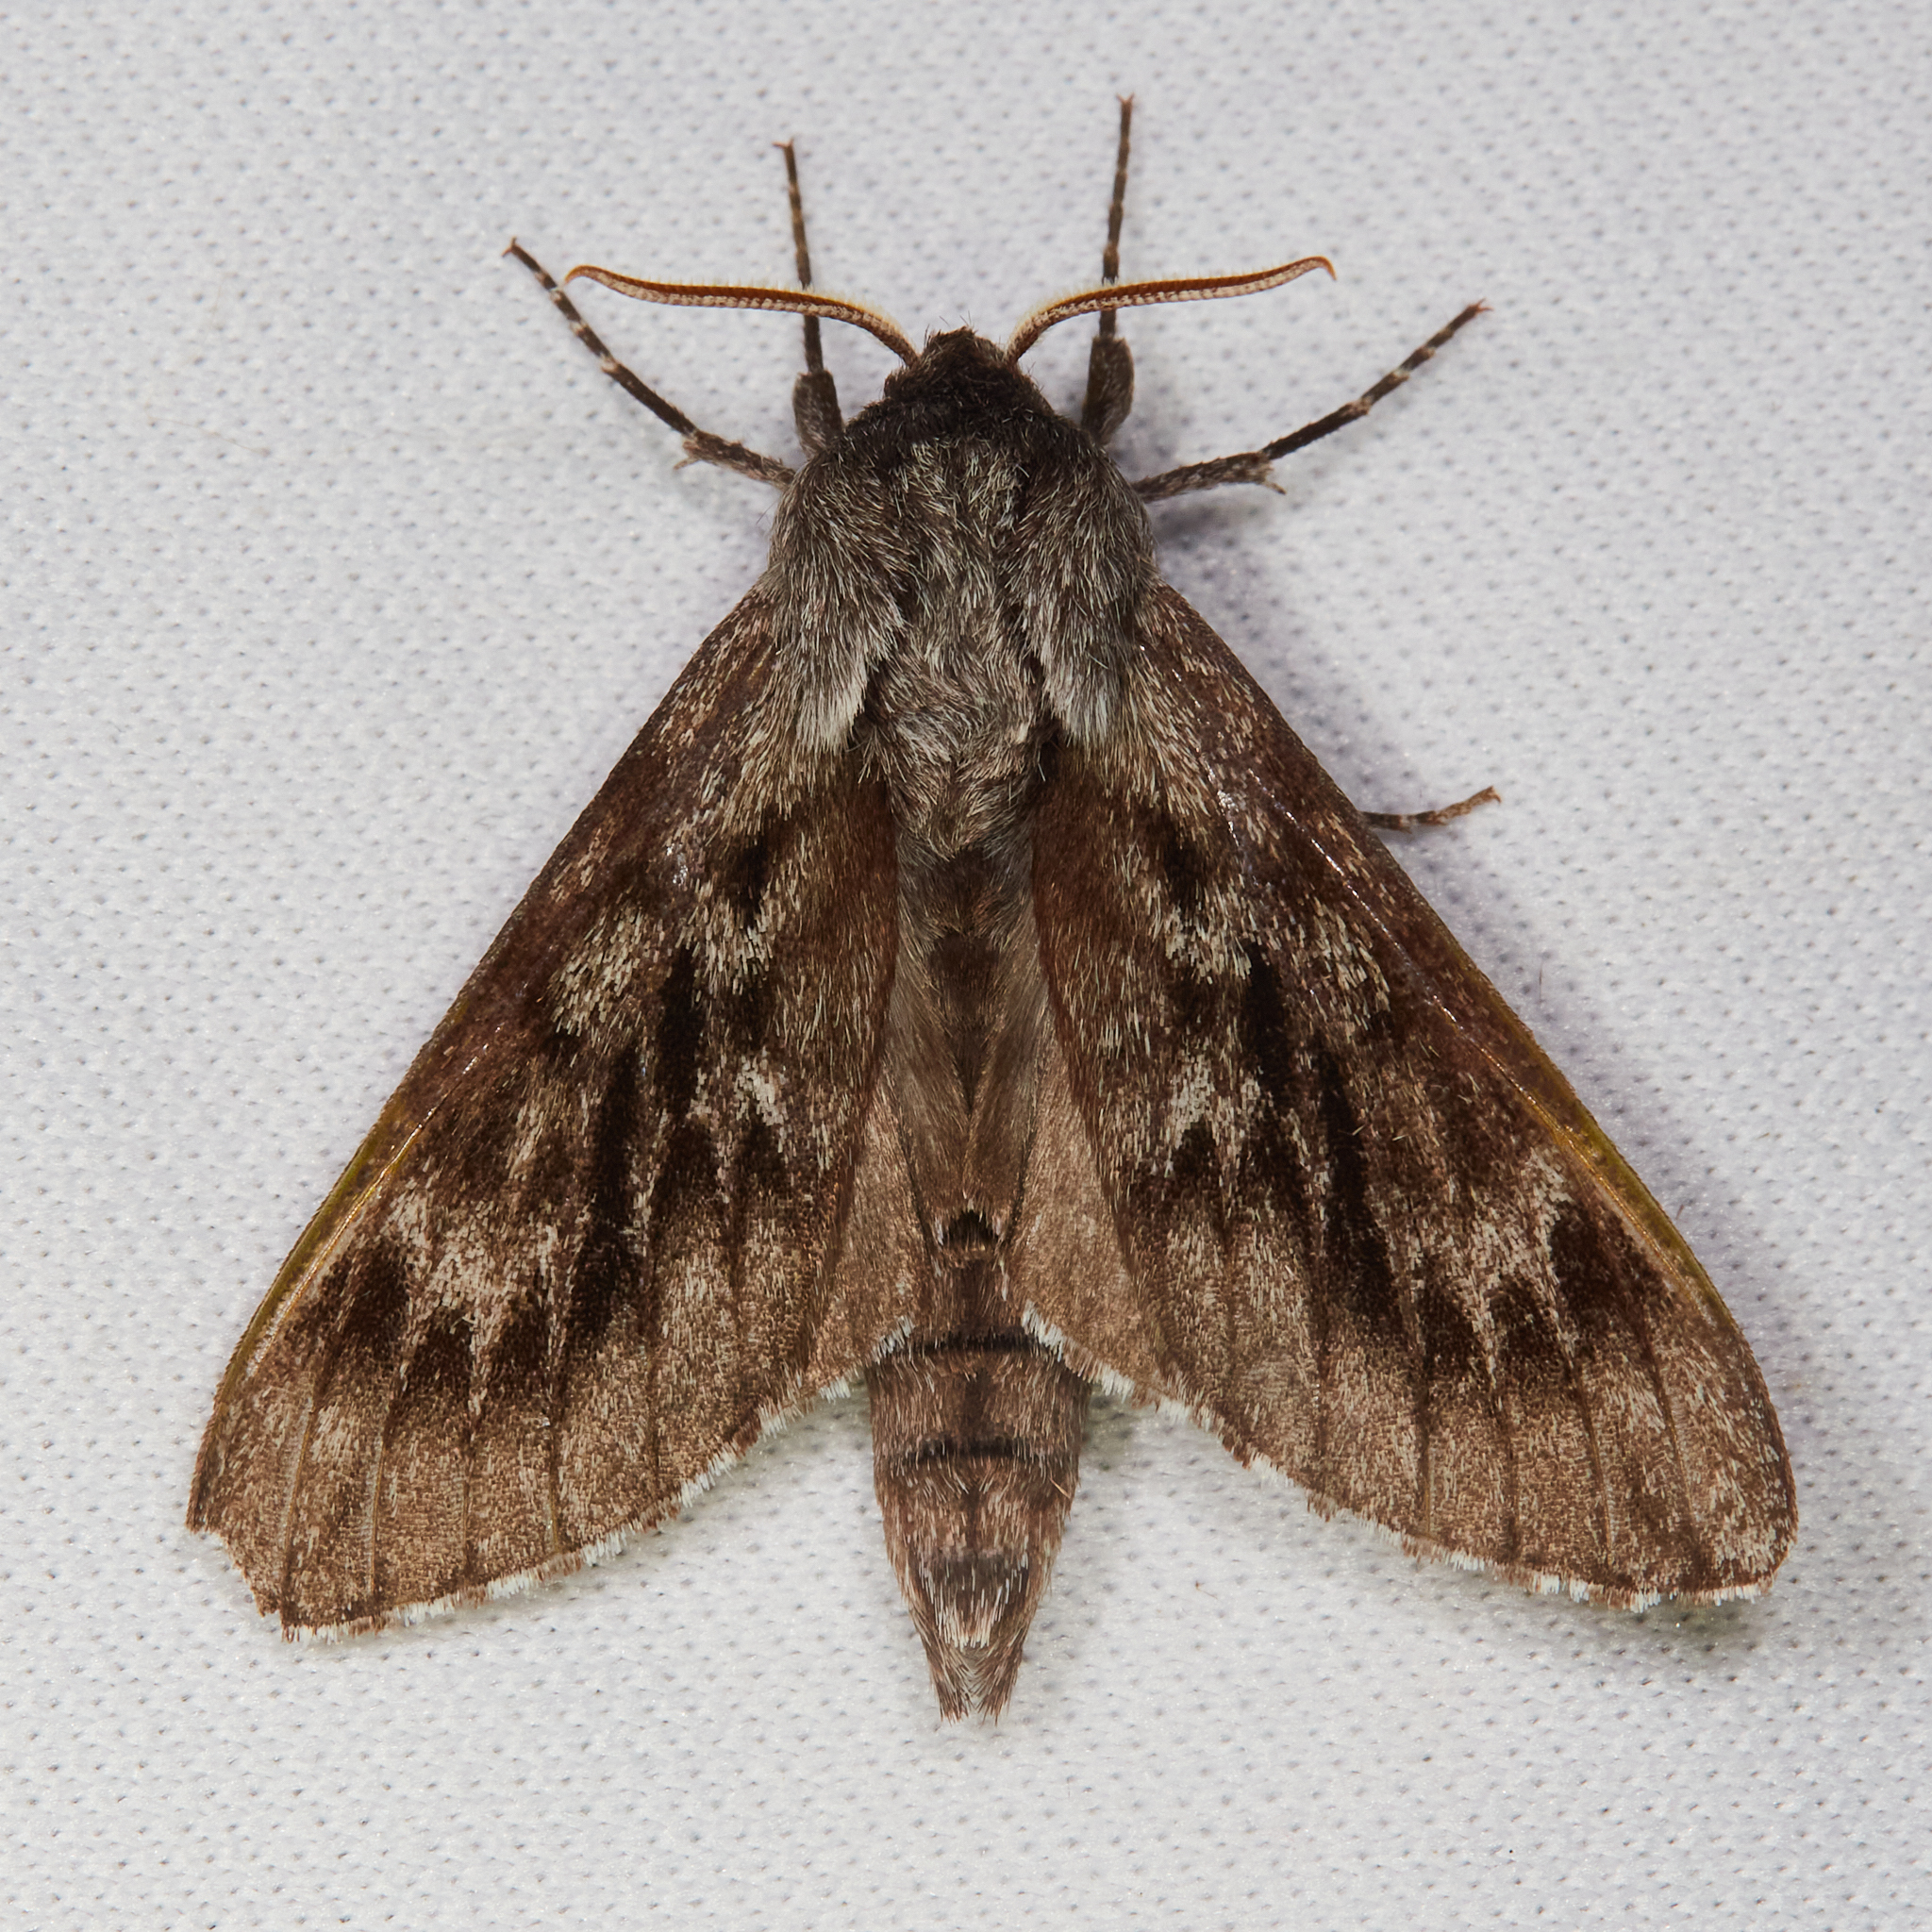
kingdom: Animalia
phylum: Arthropoda
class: Insecta
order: Lepidoptera
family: Sphingidae
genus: Lapara
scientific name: Lapara bombycoides
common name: Northern pine sphinx
